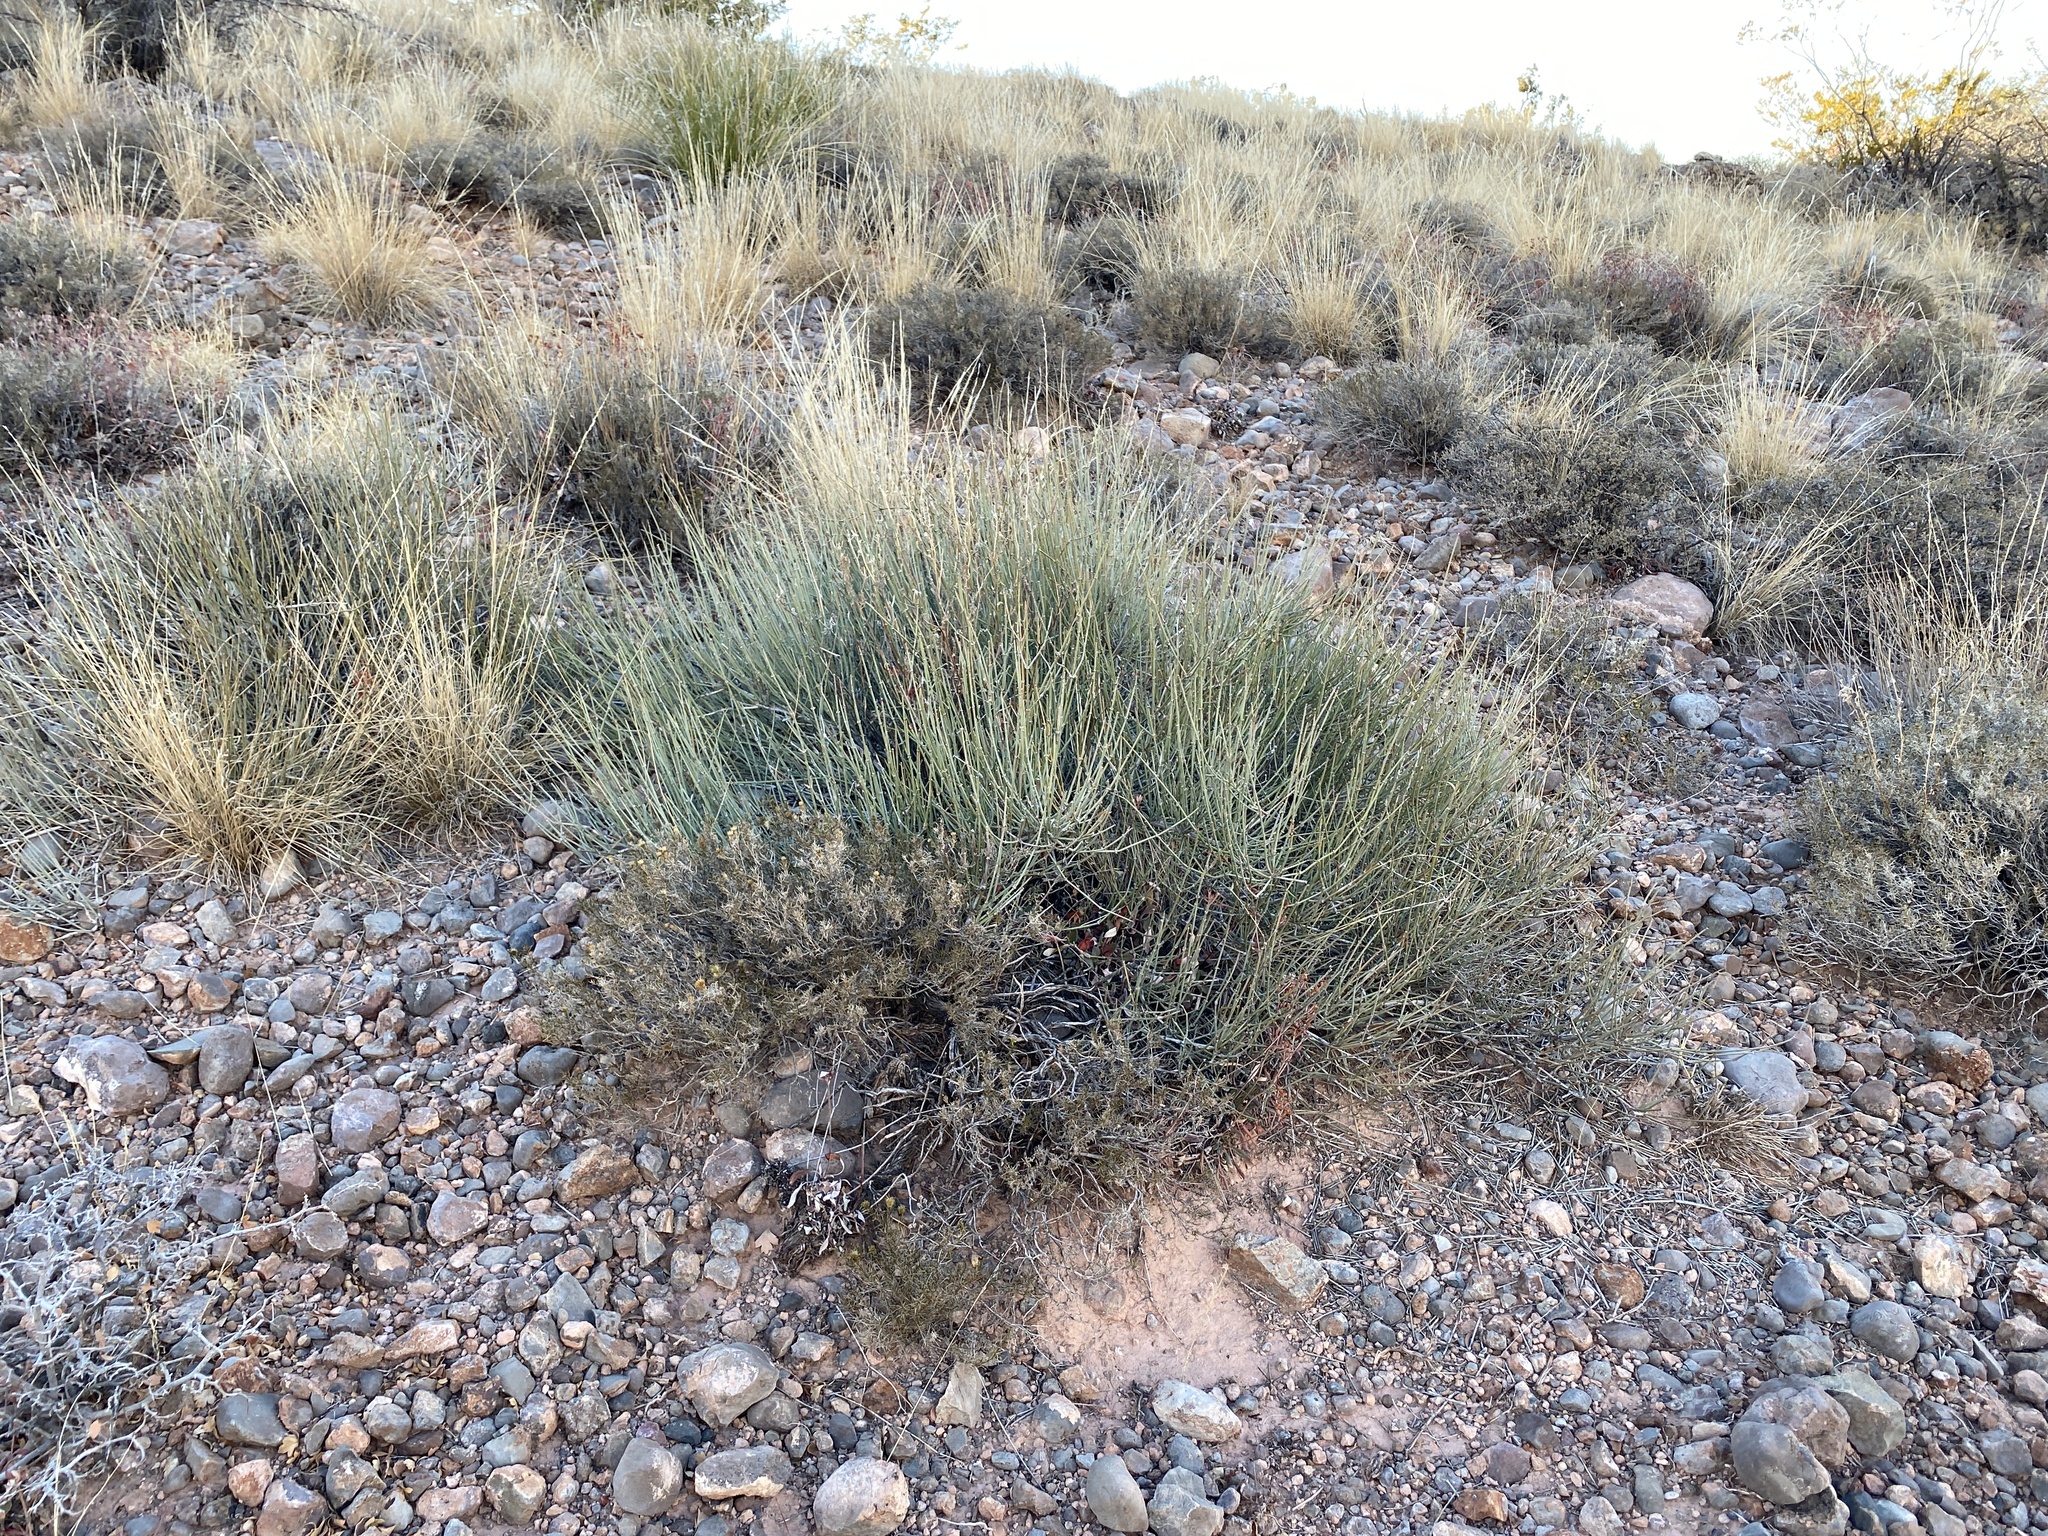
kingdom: Plantae
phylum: Tracheophyta
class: Gnetopsida
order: Ephedrales
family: Ephedraceae
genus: Ephedra
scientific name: Ephedra viridis
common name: Green ephedra
